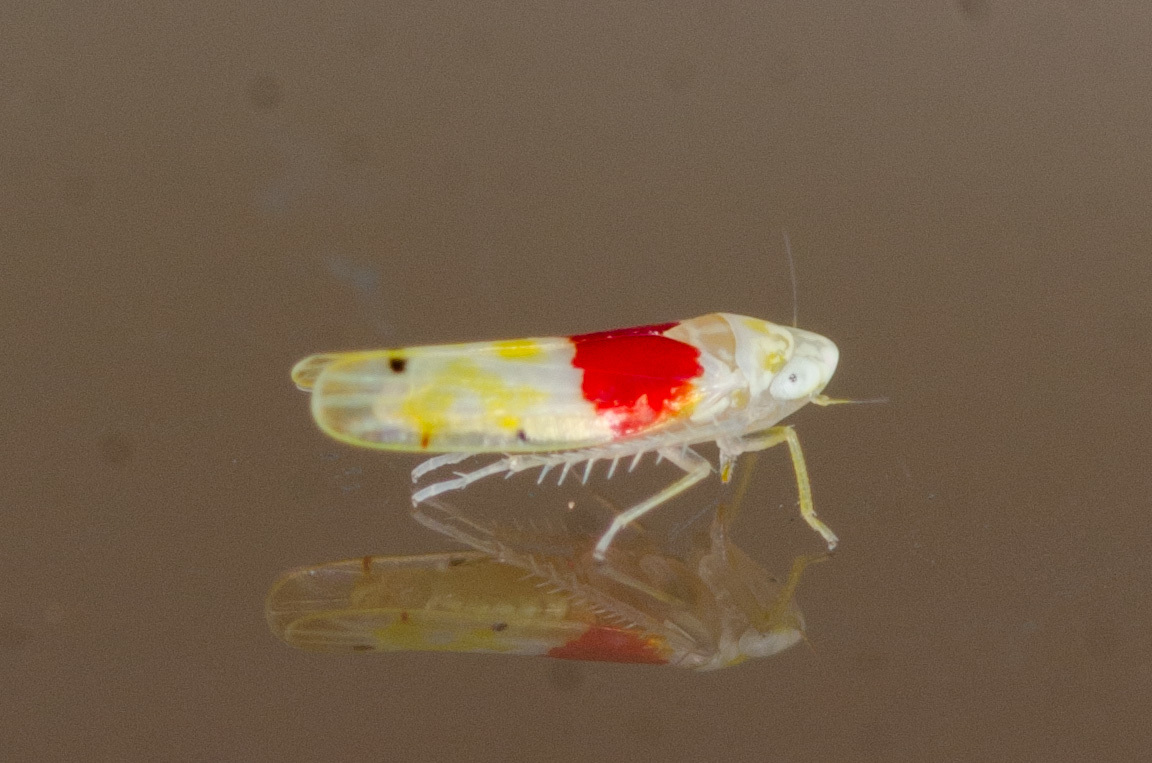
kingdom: Animalia
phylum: Arthropoda
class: Insecta
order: Hemiptera
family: Cicadellidae
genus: Eratoneura
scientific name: Eratoneura osborni
